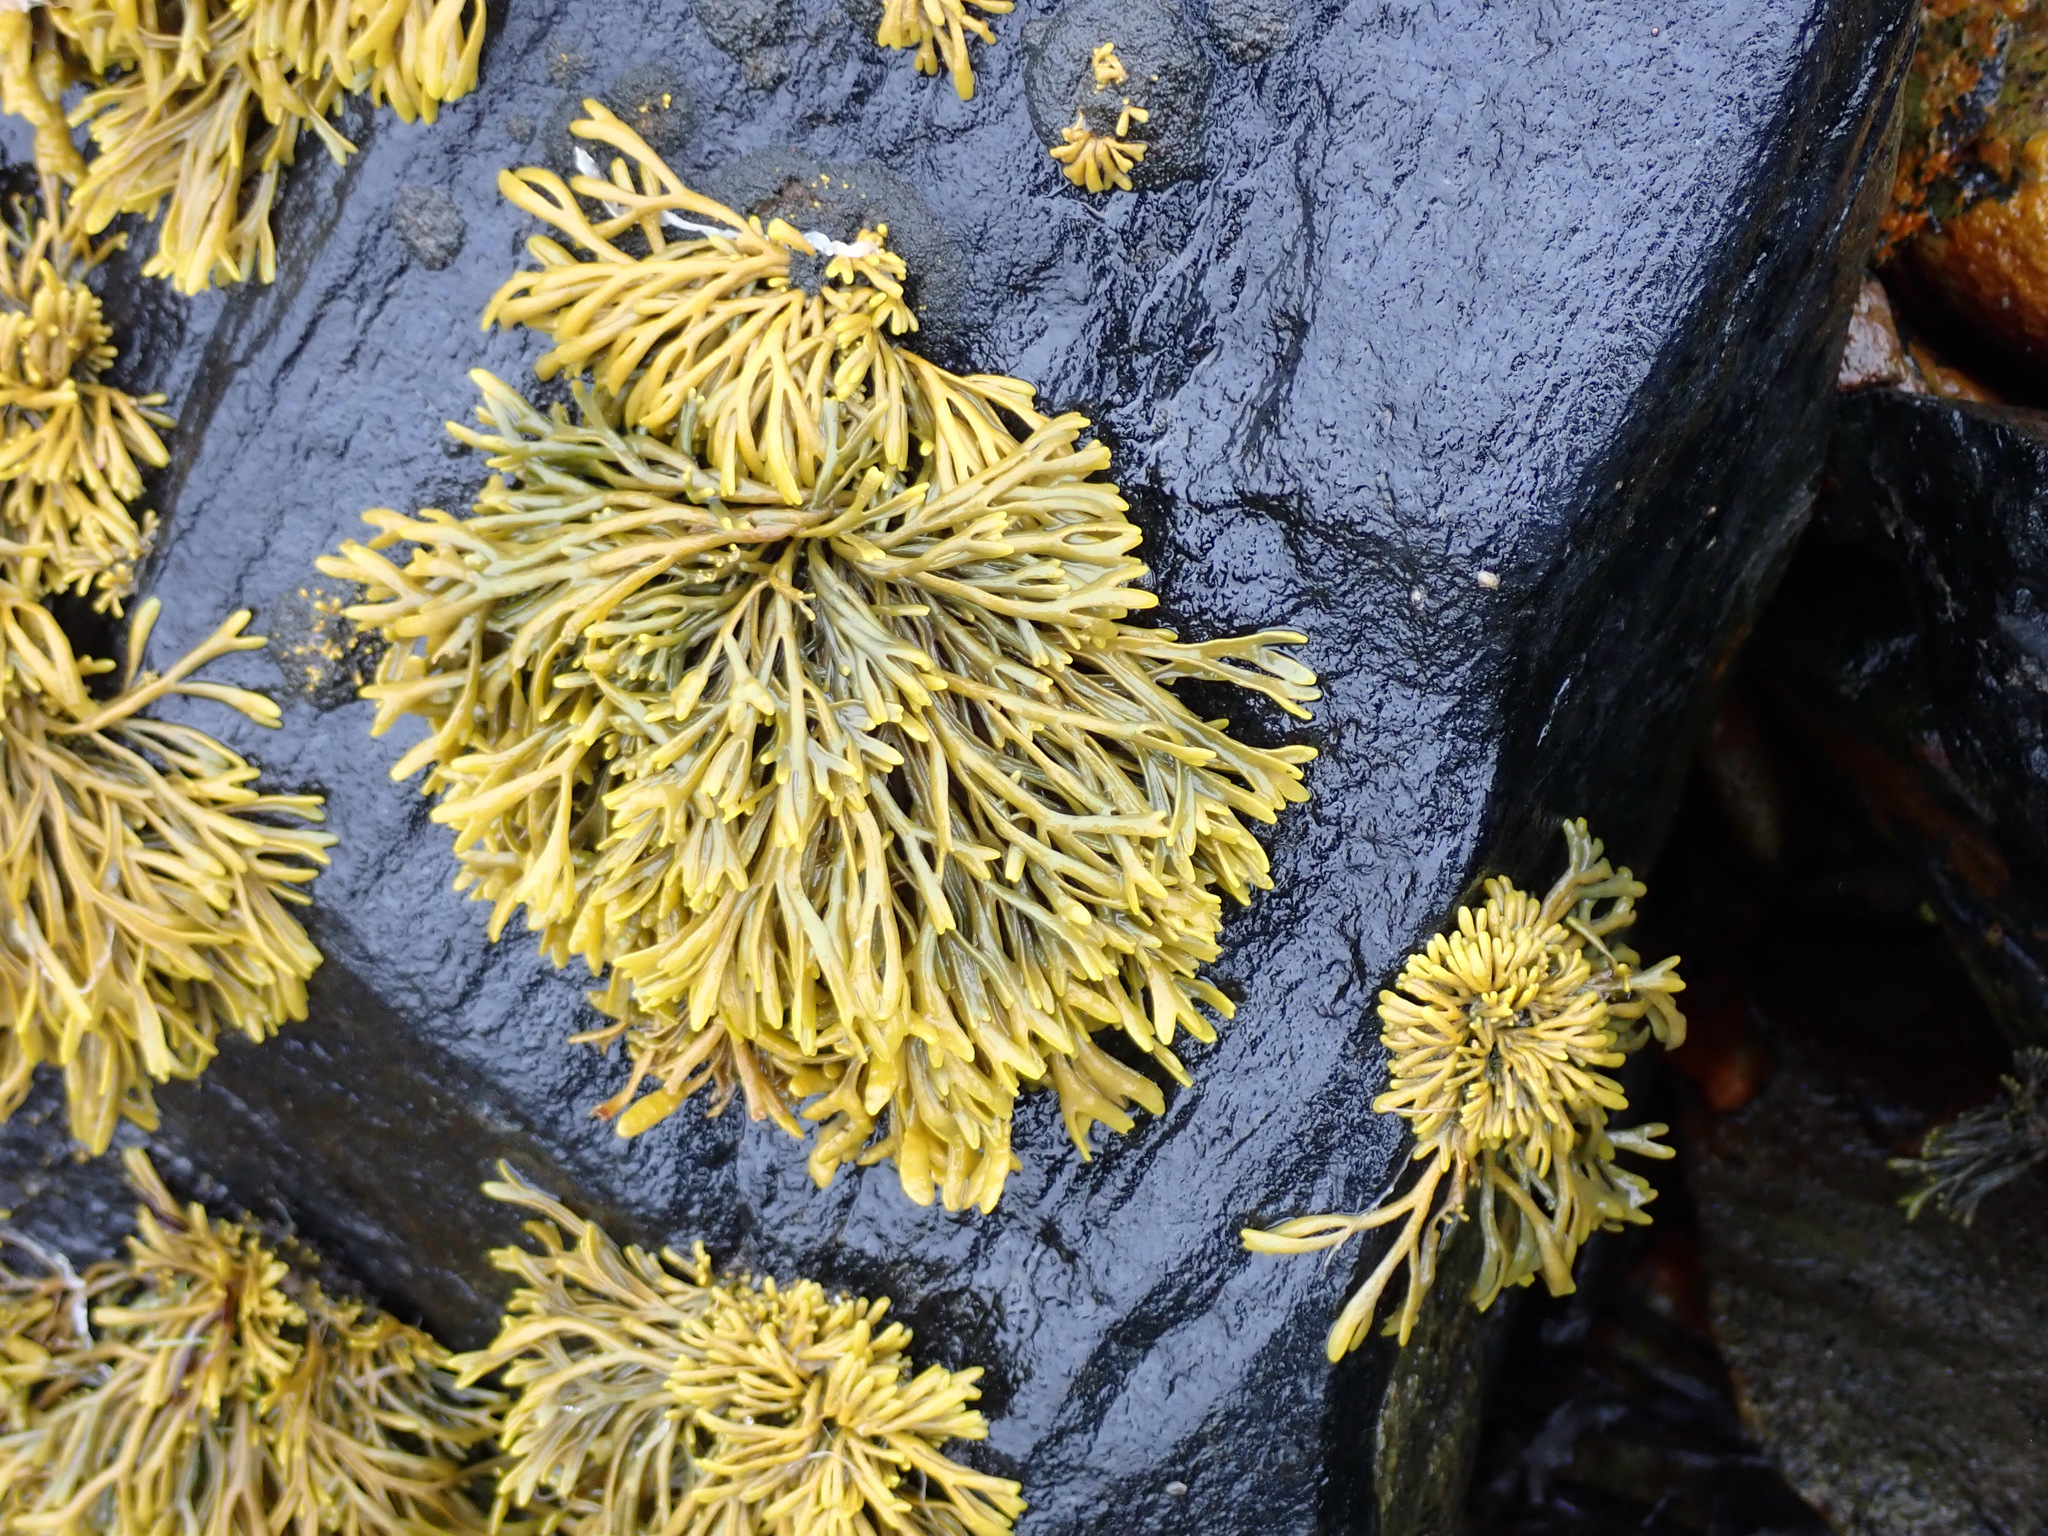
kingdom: Chromista
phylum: Ochrophyta
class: Phaeophyceae
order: Fucales
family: Fucaceae
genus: Pelvetia
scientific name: Pelvetia canaliculata
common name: Channelled wrack
